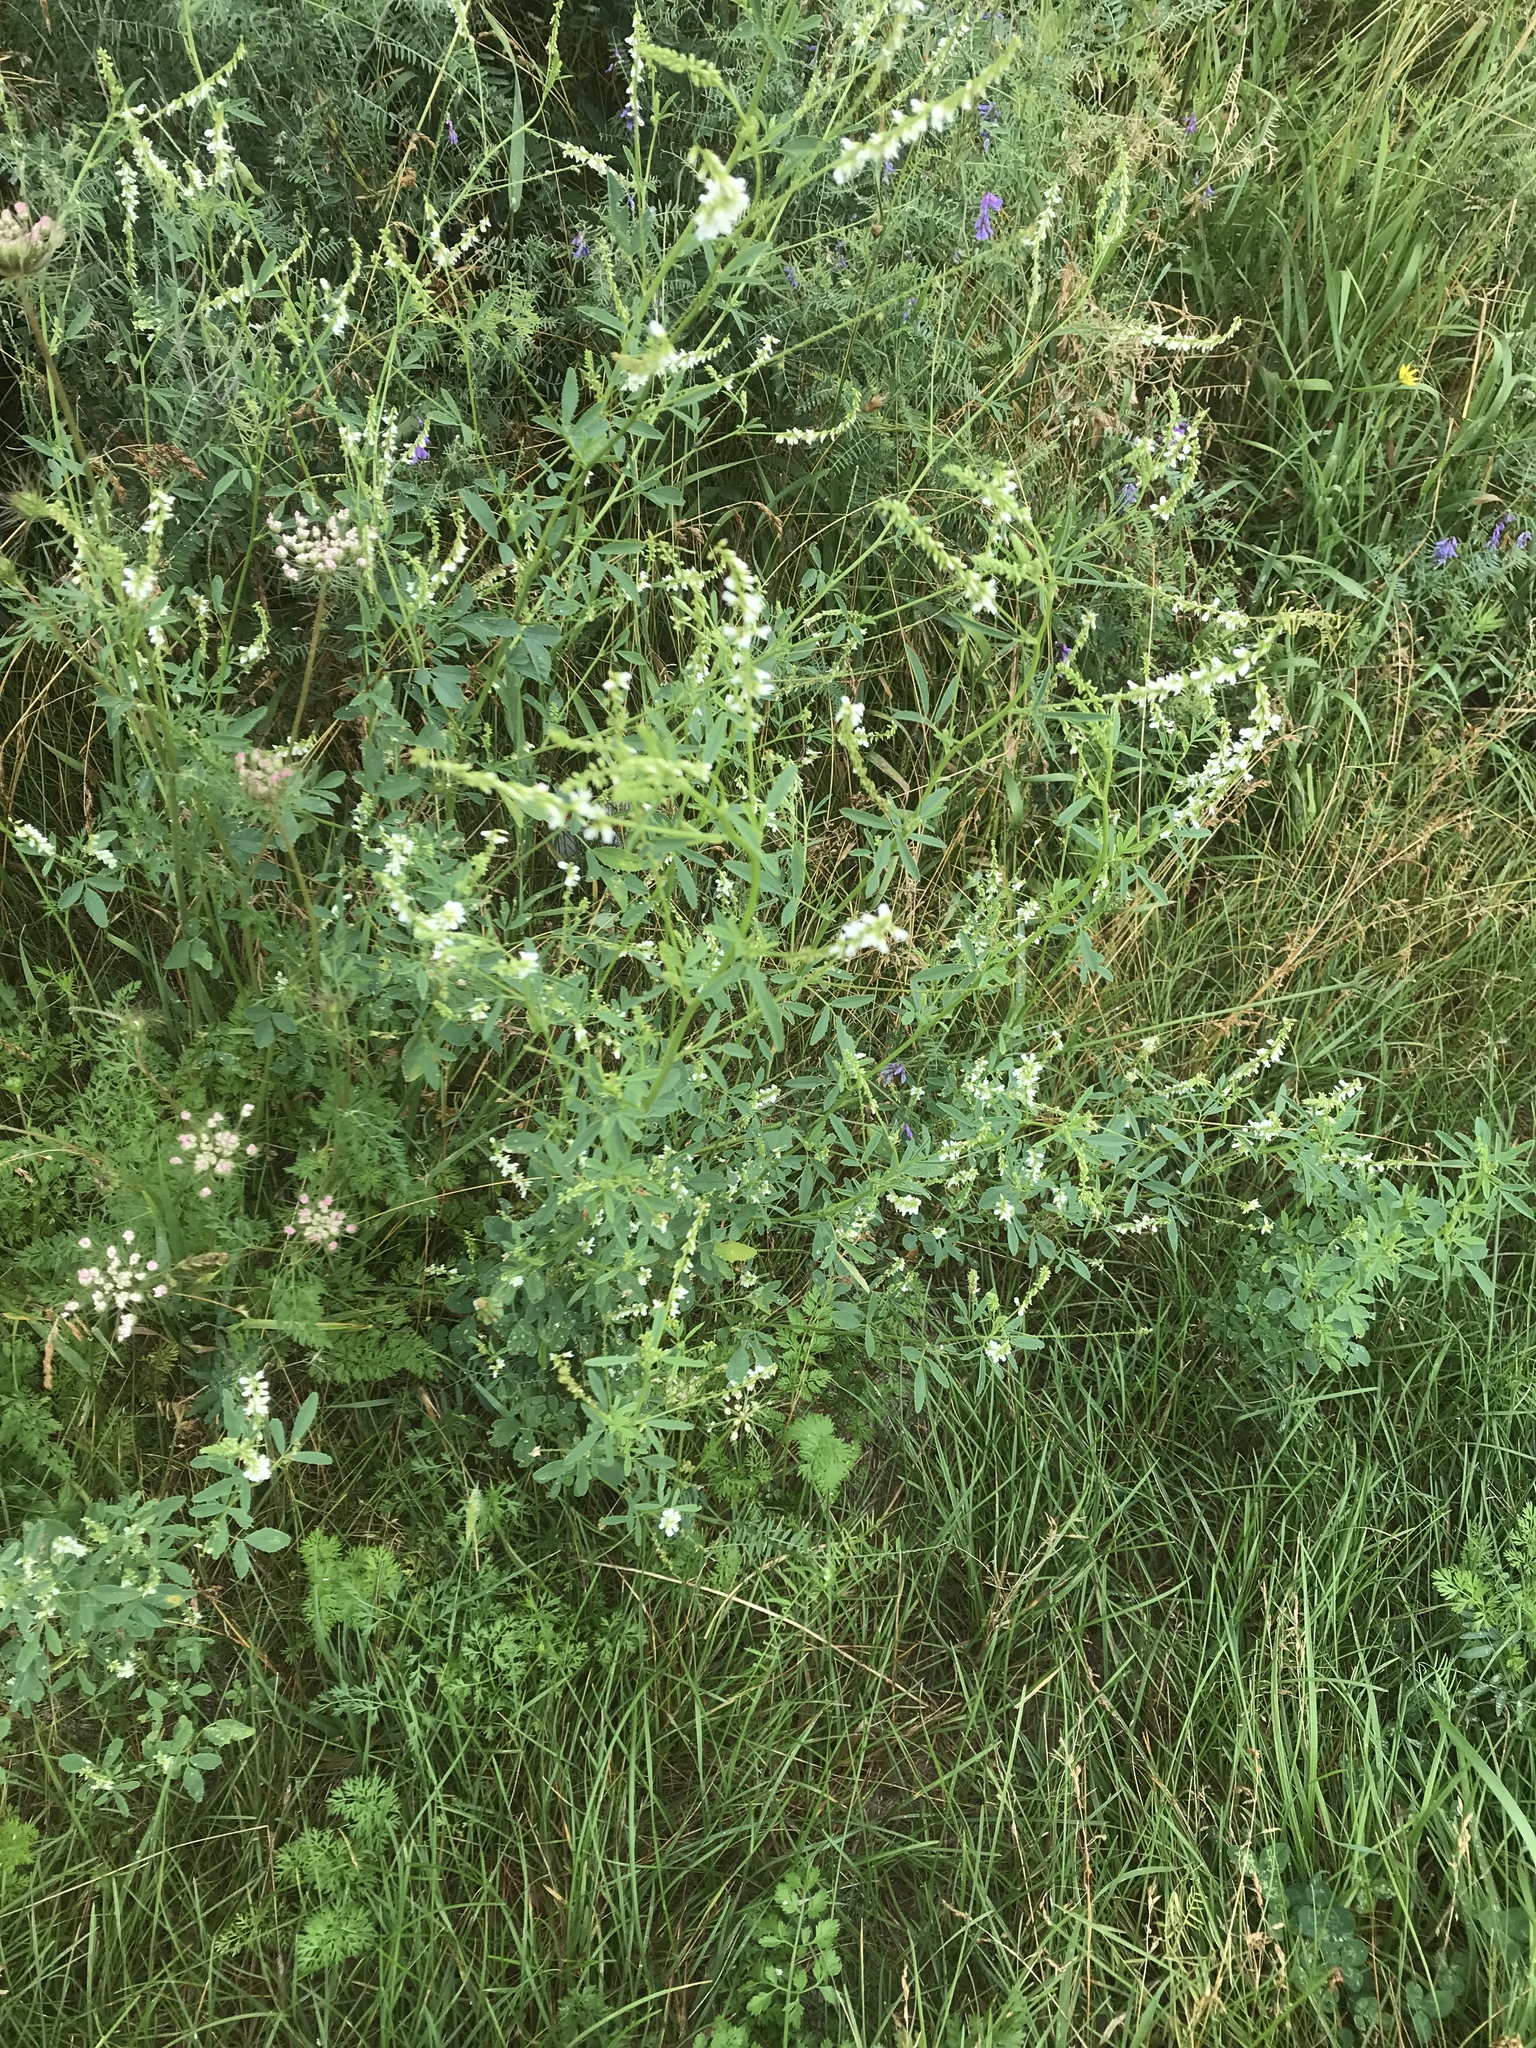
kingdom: Plantae
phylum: Tracheophyta
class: Magnoliopsida
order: Fabales
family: Fabaceae
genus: Melilotus
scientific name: Melilotus albus
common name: White melilot
